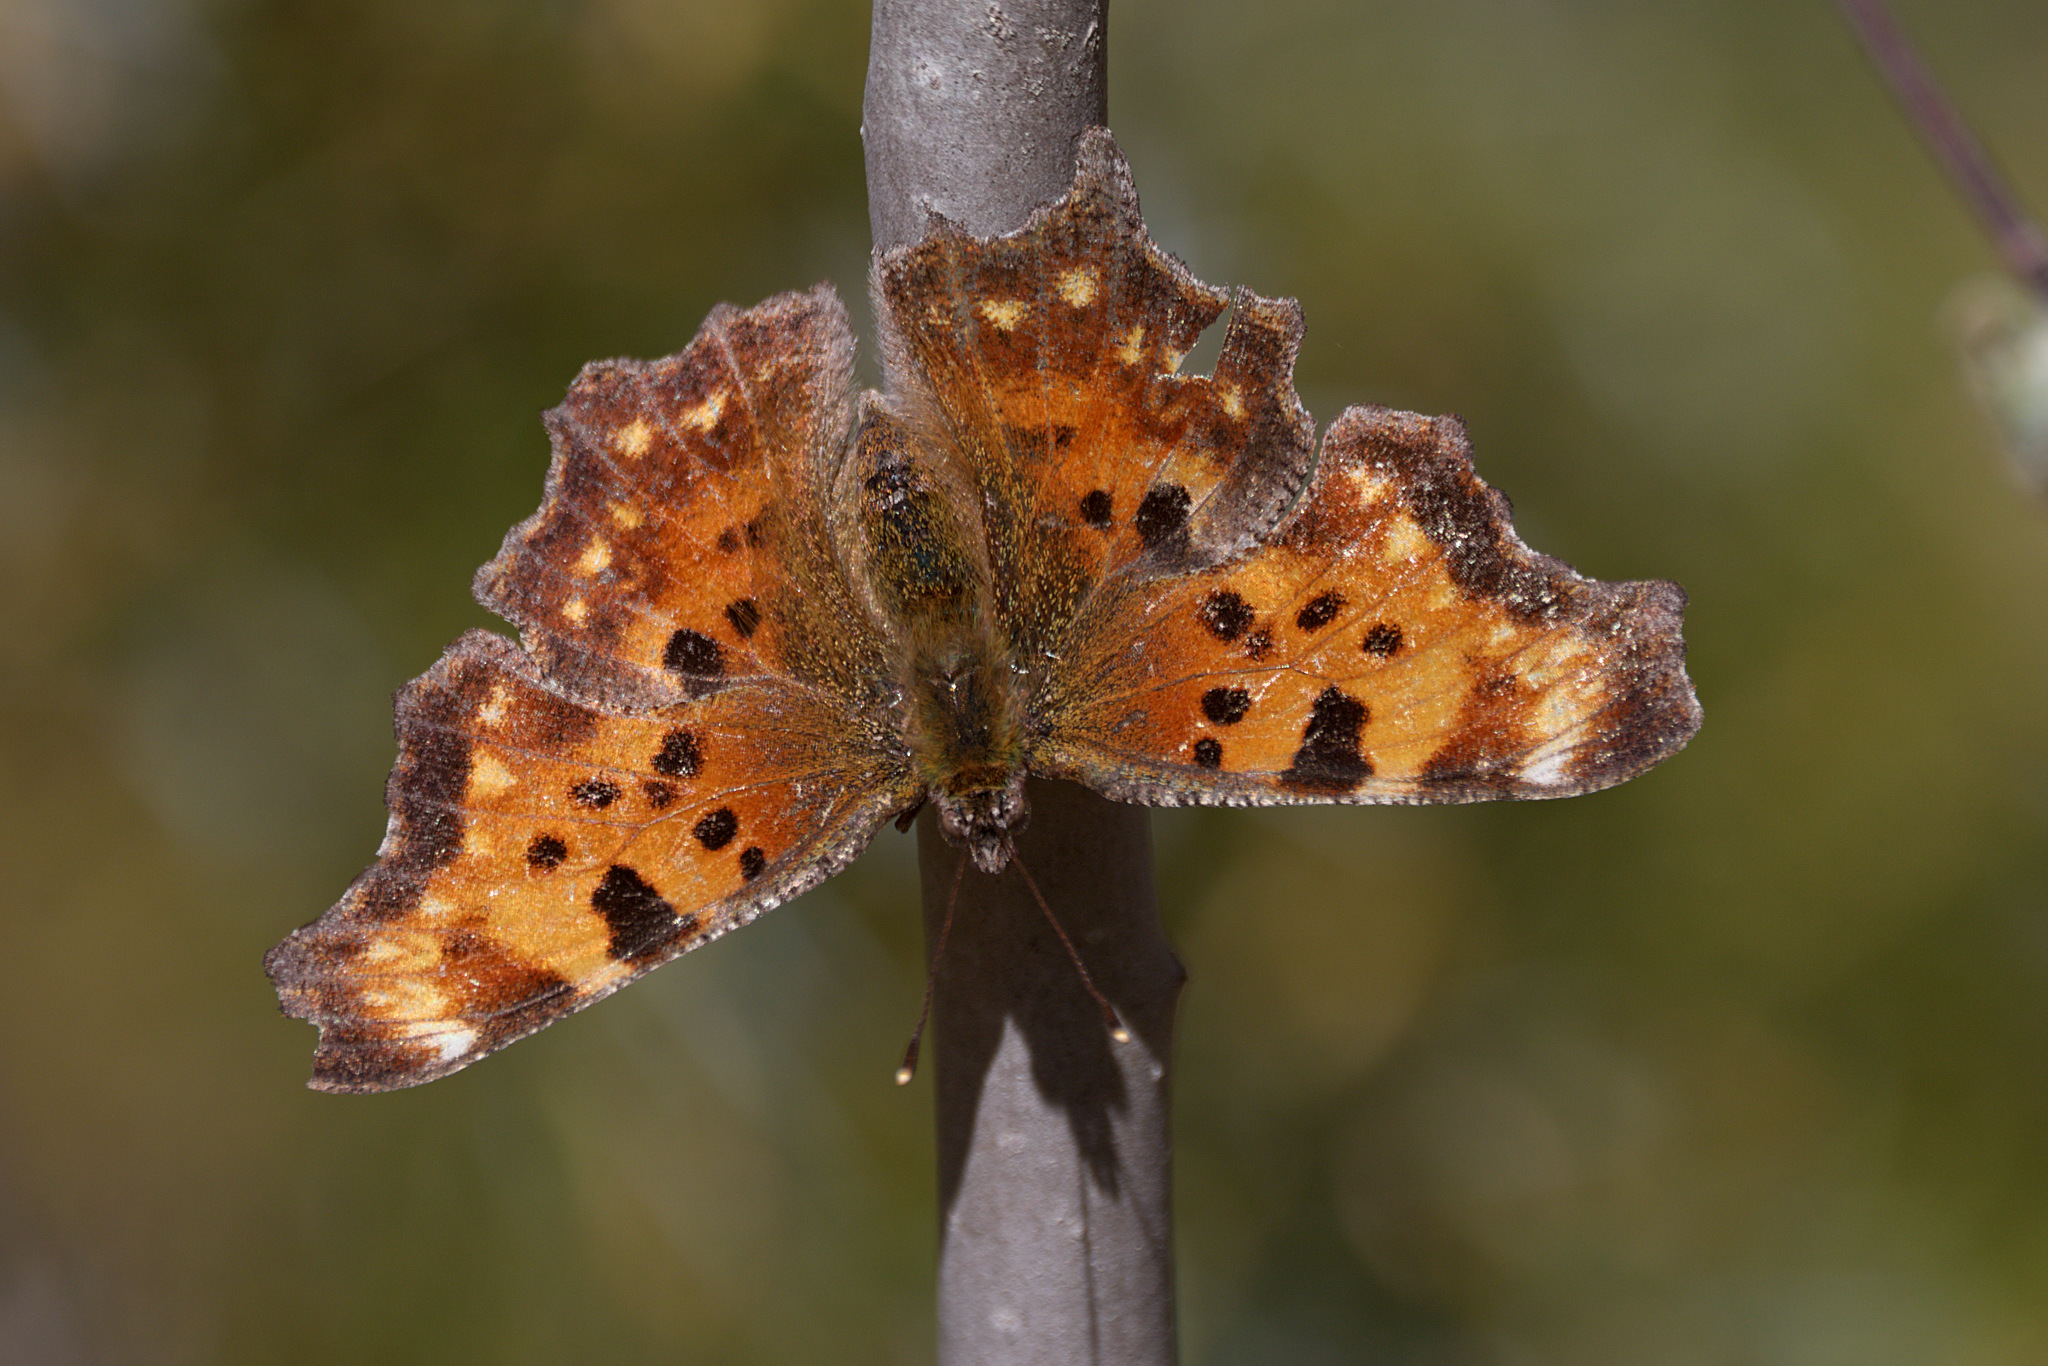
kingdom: Animalia
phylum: Arthropoda
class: Insecta
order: Lepidoptera
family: Nymphalidae
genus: Polygonia
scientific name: Polygonia faunus
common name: Green comma
